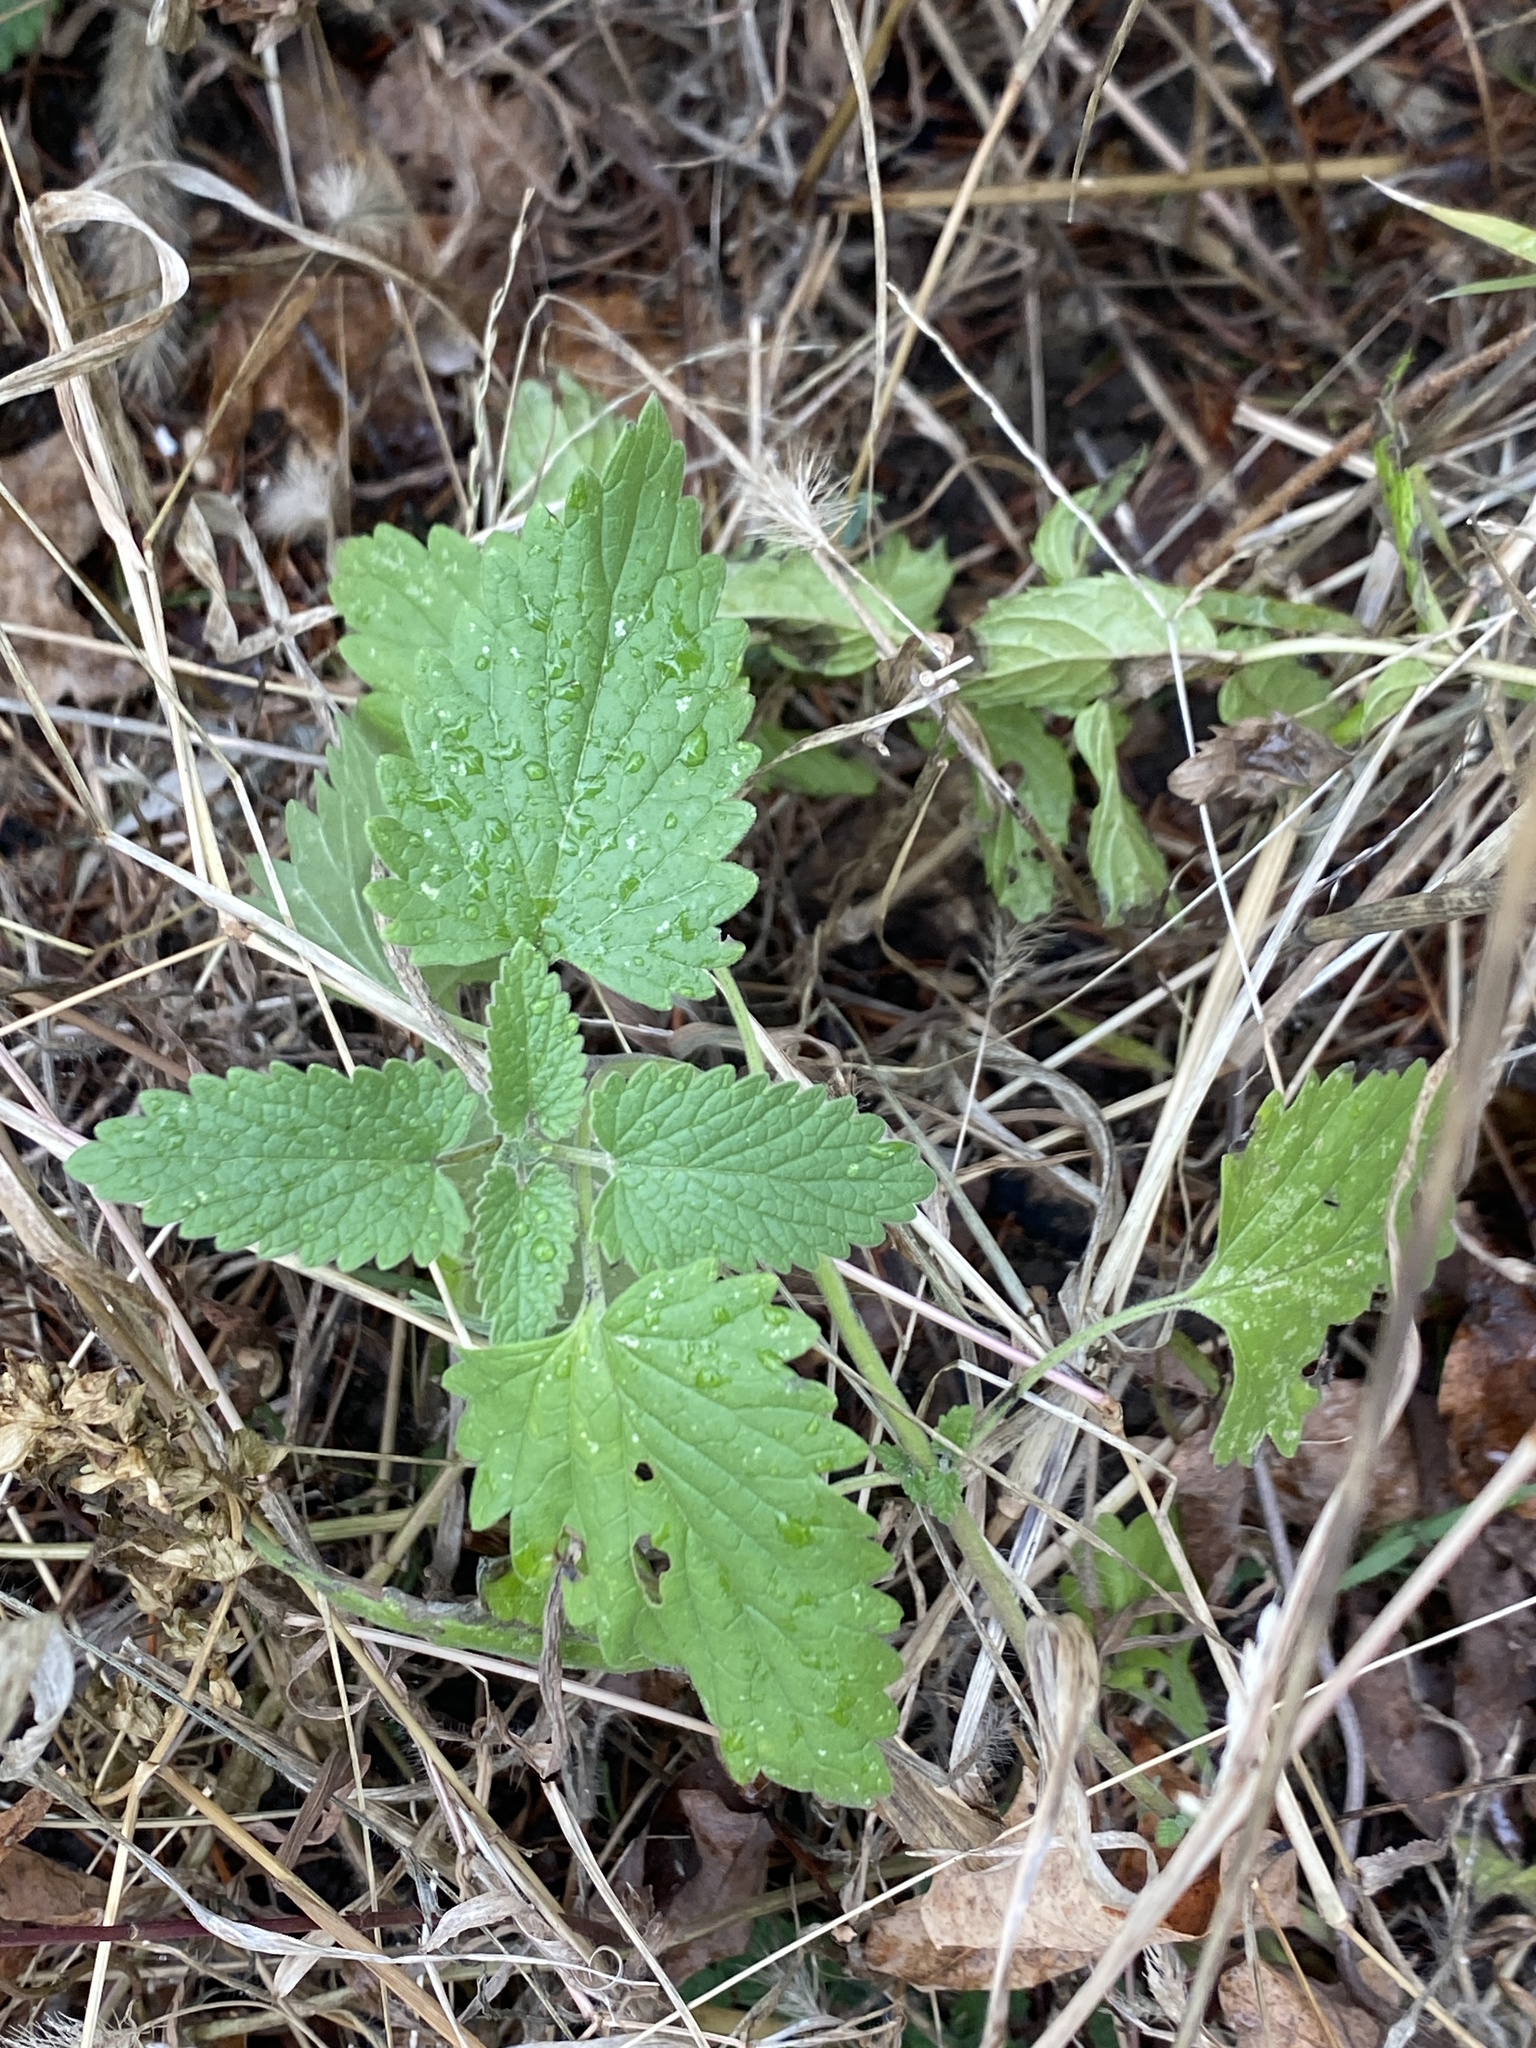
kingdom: Plantae
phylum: Tracheophyta
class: Magnoliopsida
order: Lamiales
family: Lamiaceae
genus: Nepeta
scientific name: Nepeta cataria
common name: Catnip
